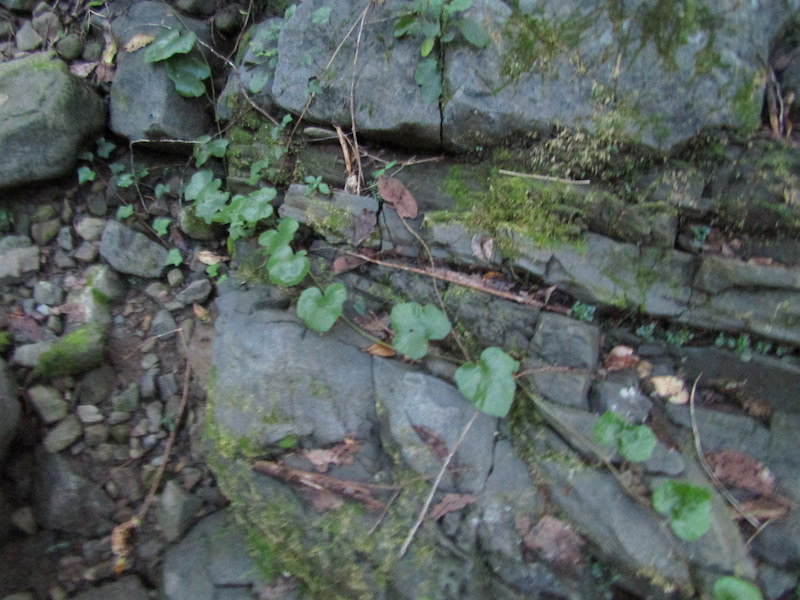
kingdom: Plantae
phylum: Tracheophyta
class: Magnoliopsida
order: Rosales
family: Rosaceae
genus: Rubus
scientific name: Rubus buergeri
